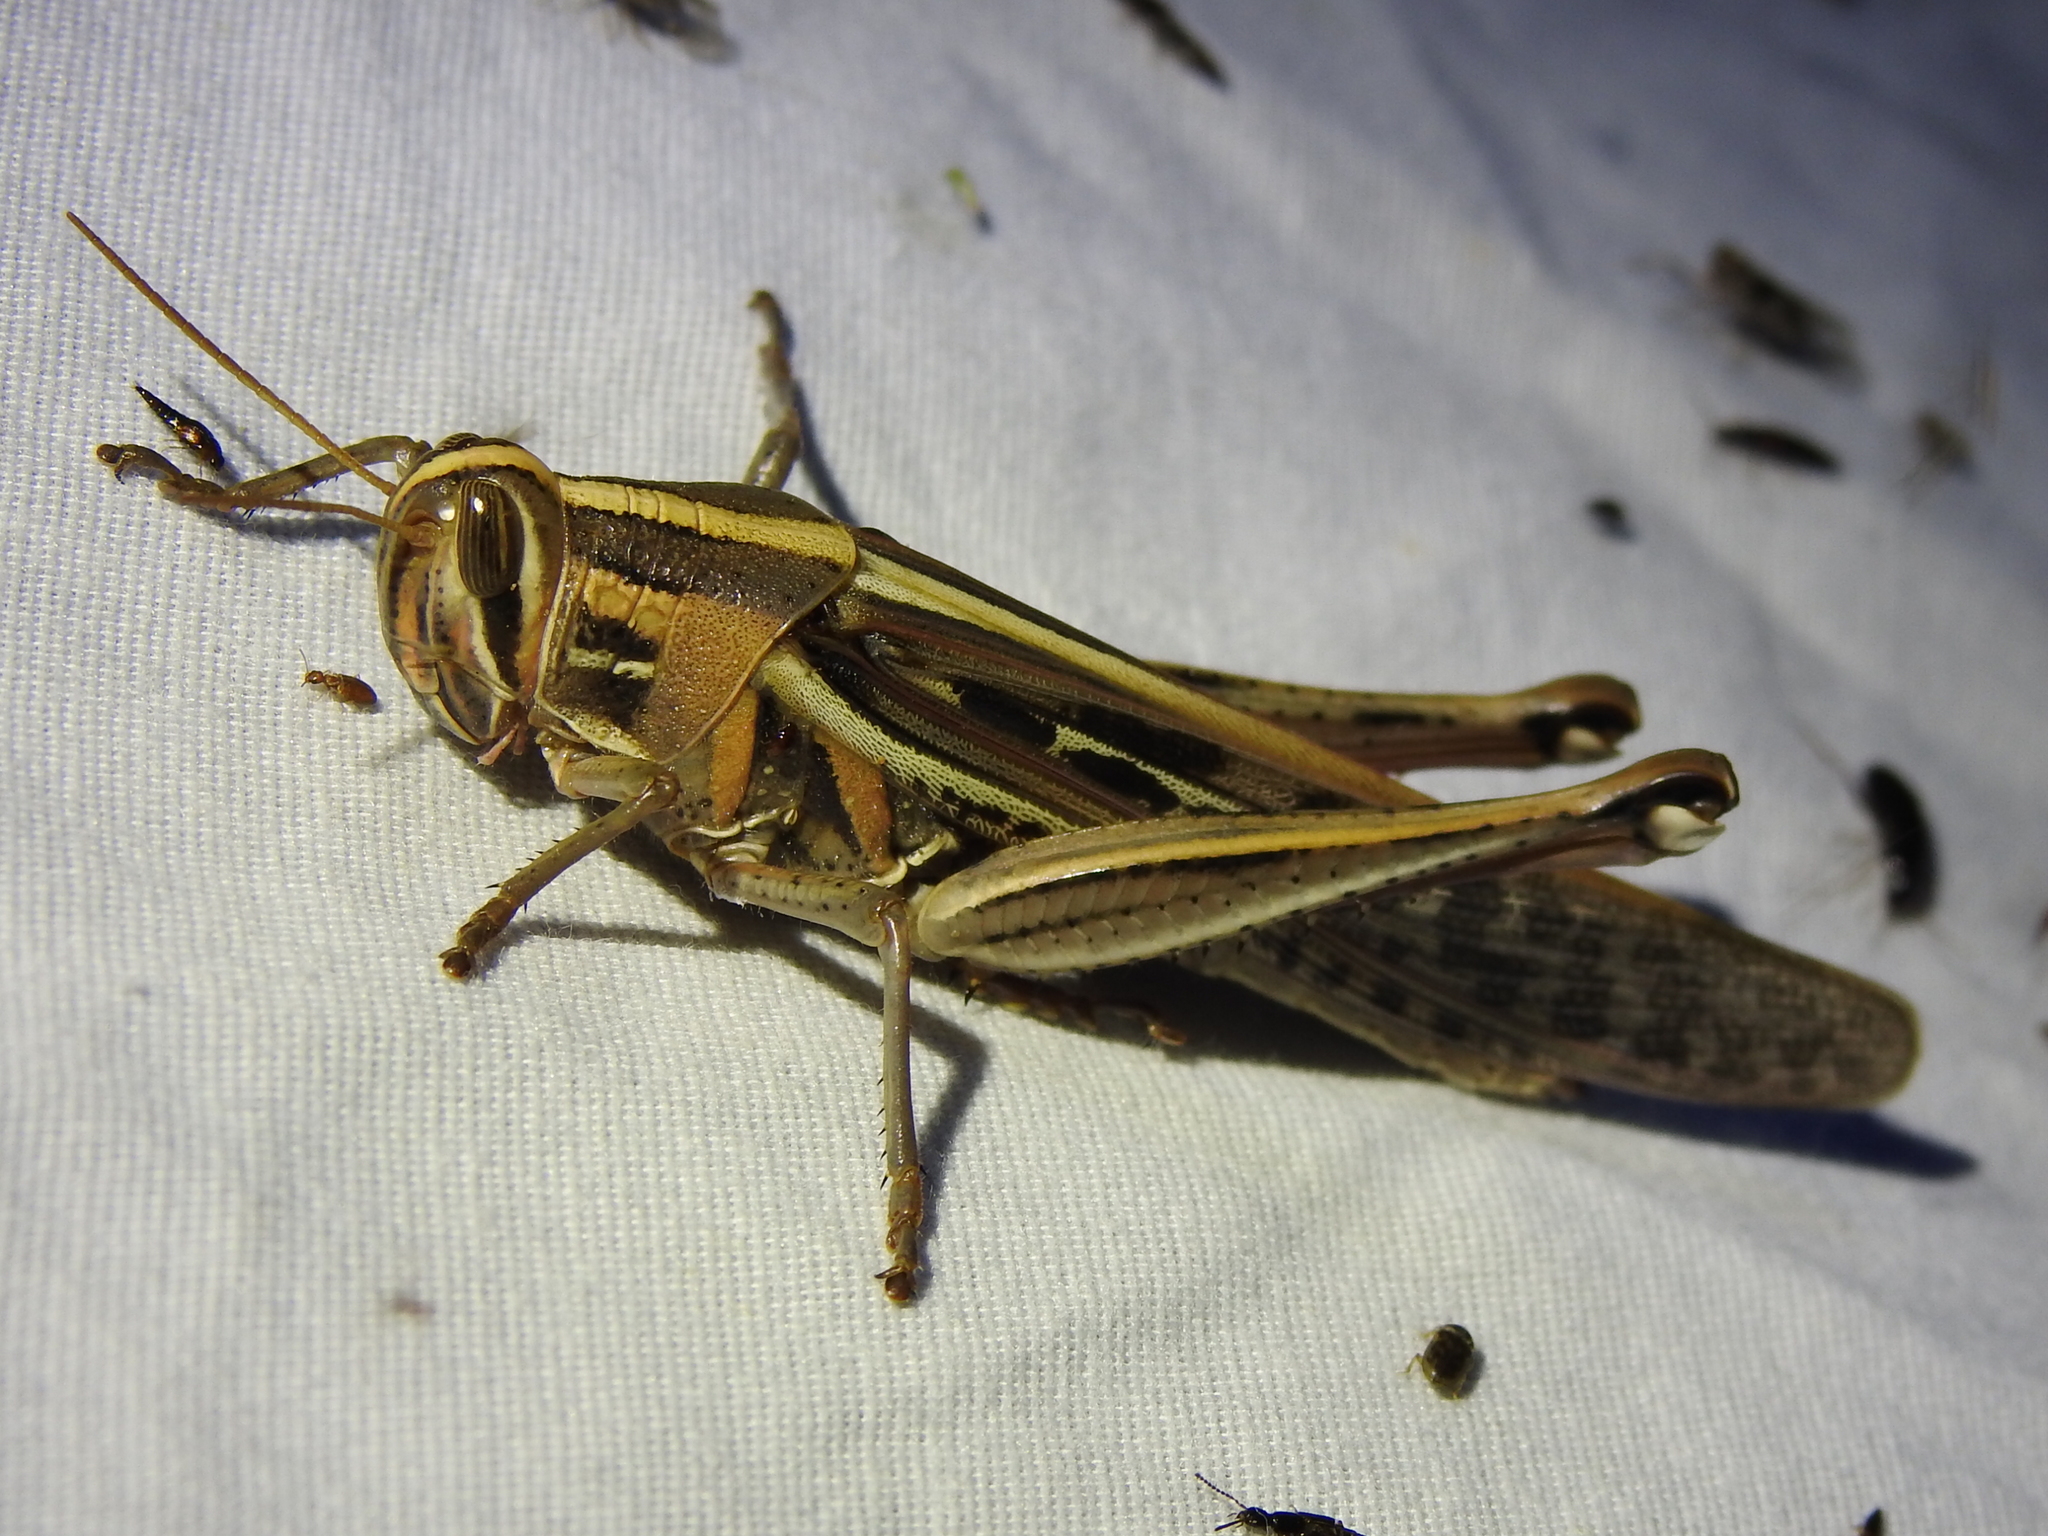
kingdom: Animalia
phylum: Arthropoda
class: Insecta
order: Orthoptera
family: Acrididae
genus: Schistocerca
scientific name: Schistocerca americana
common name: American bird locust
